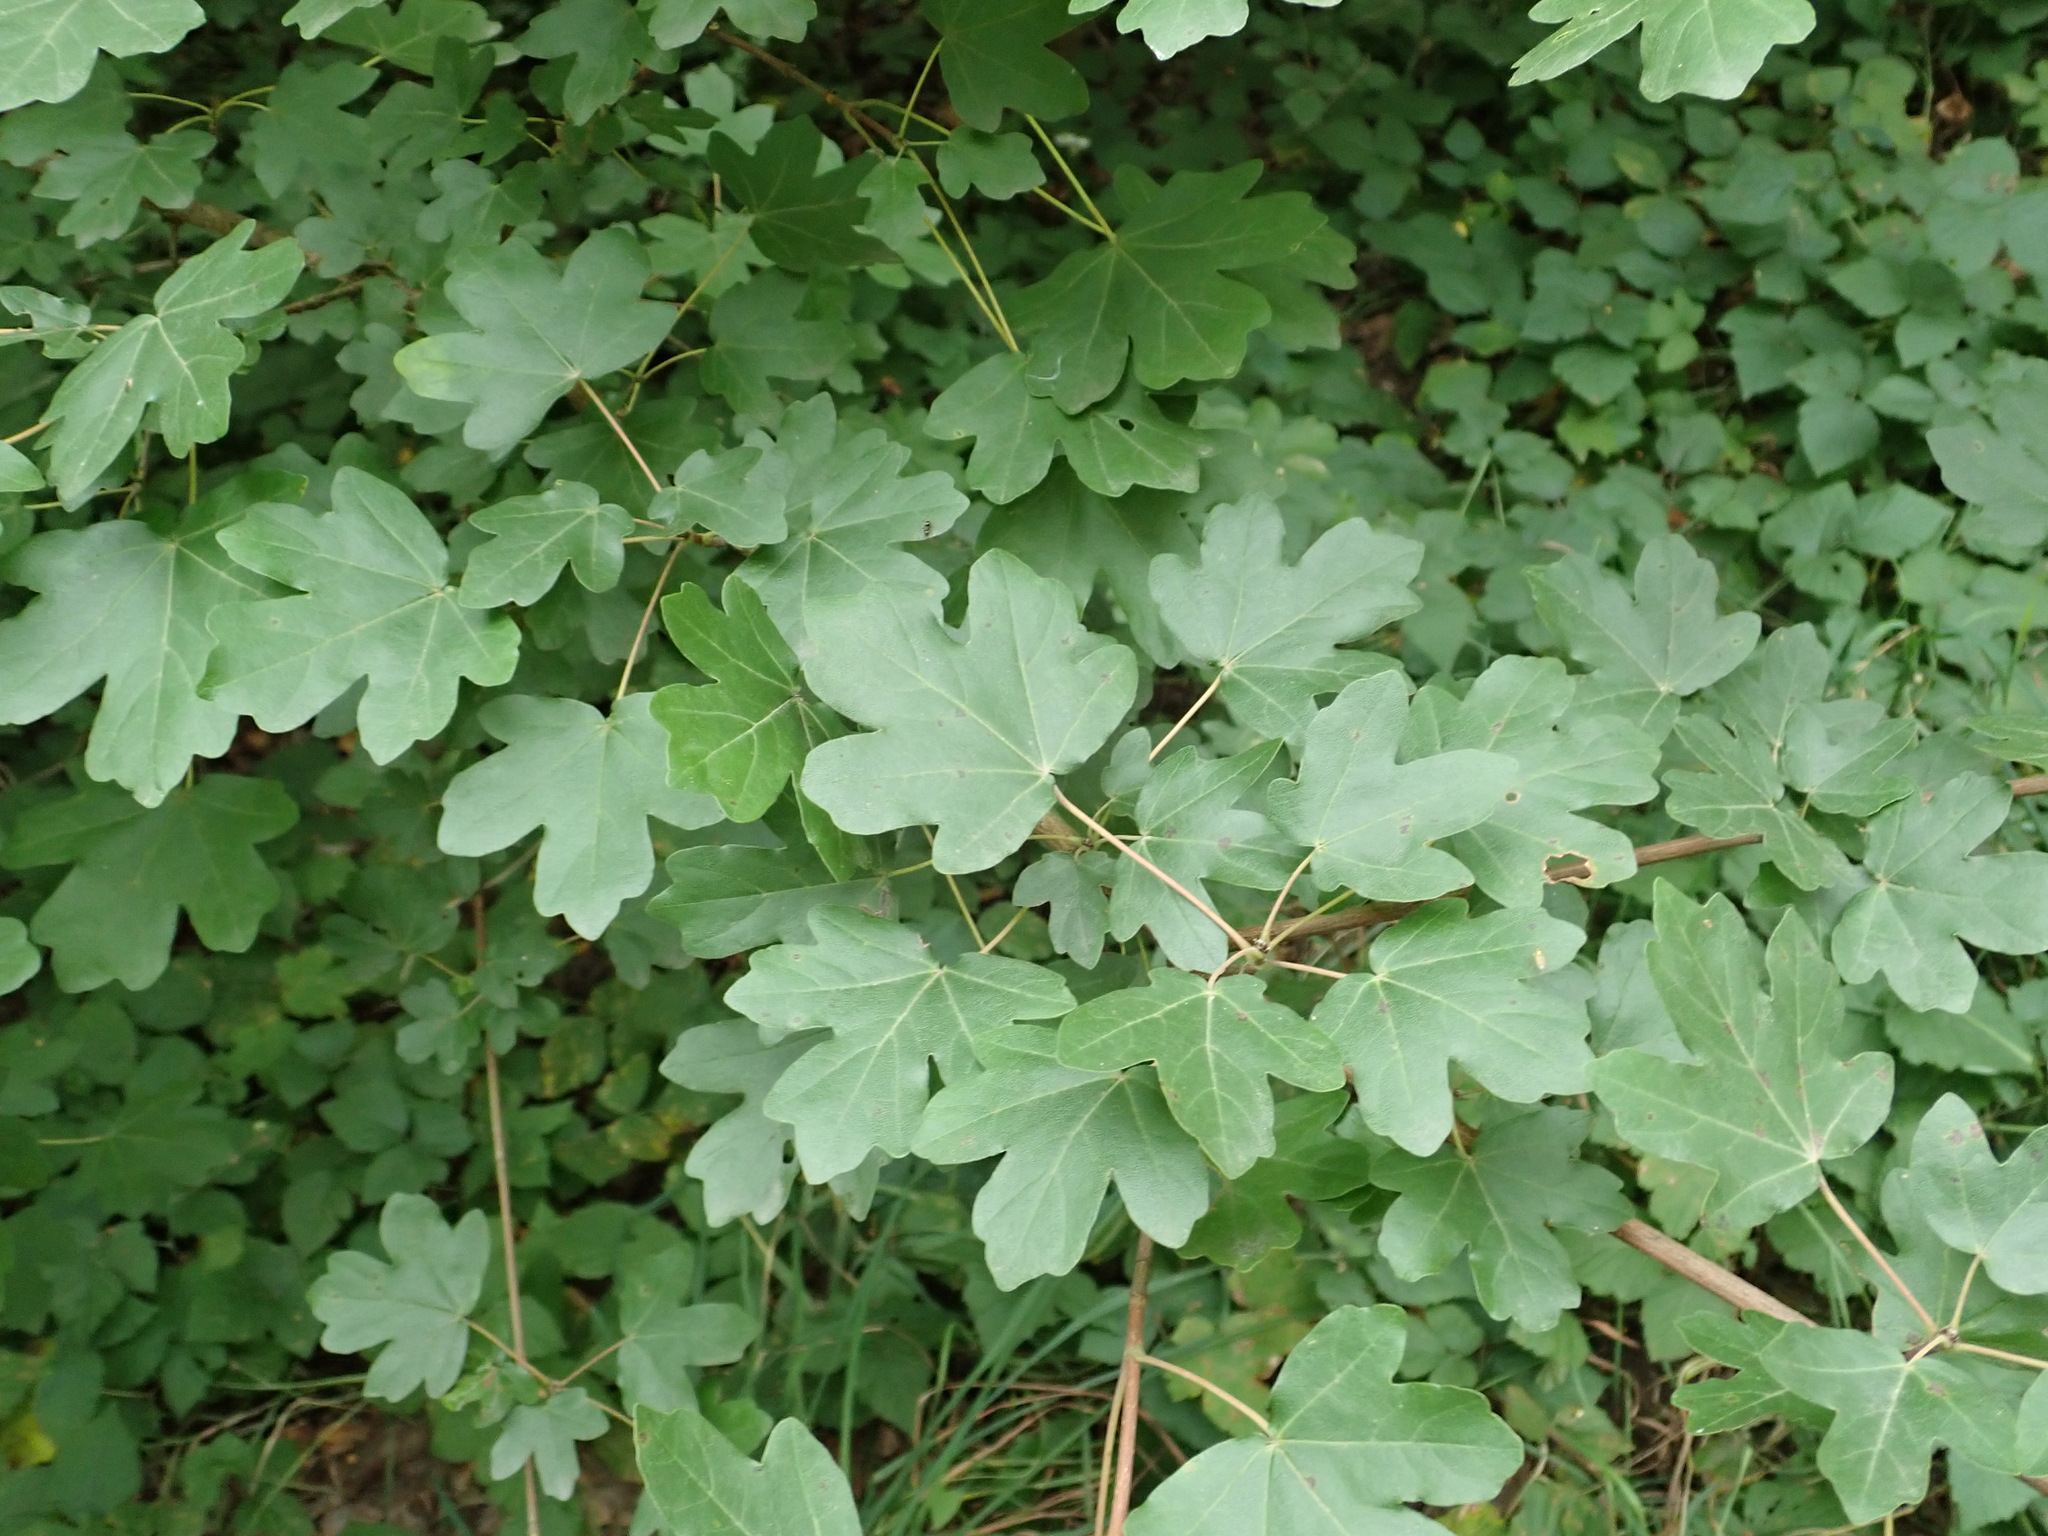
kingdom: Plantae
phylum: Tracheophyta
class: Magnoliopsida
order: Sapindales
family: Sapindaceae
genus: Acer
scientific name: Acer campestre
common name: Field maple
